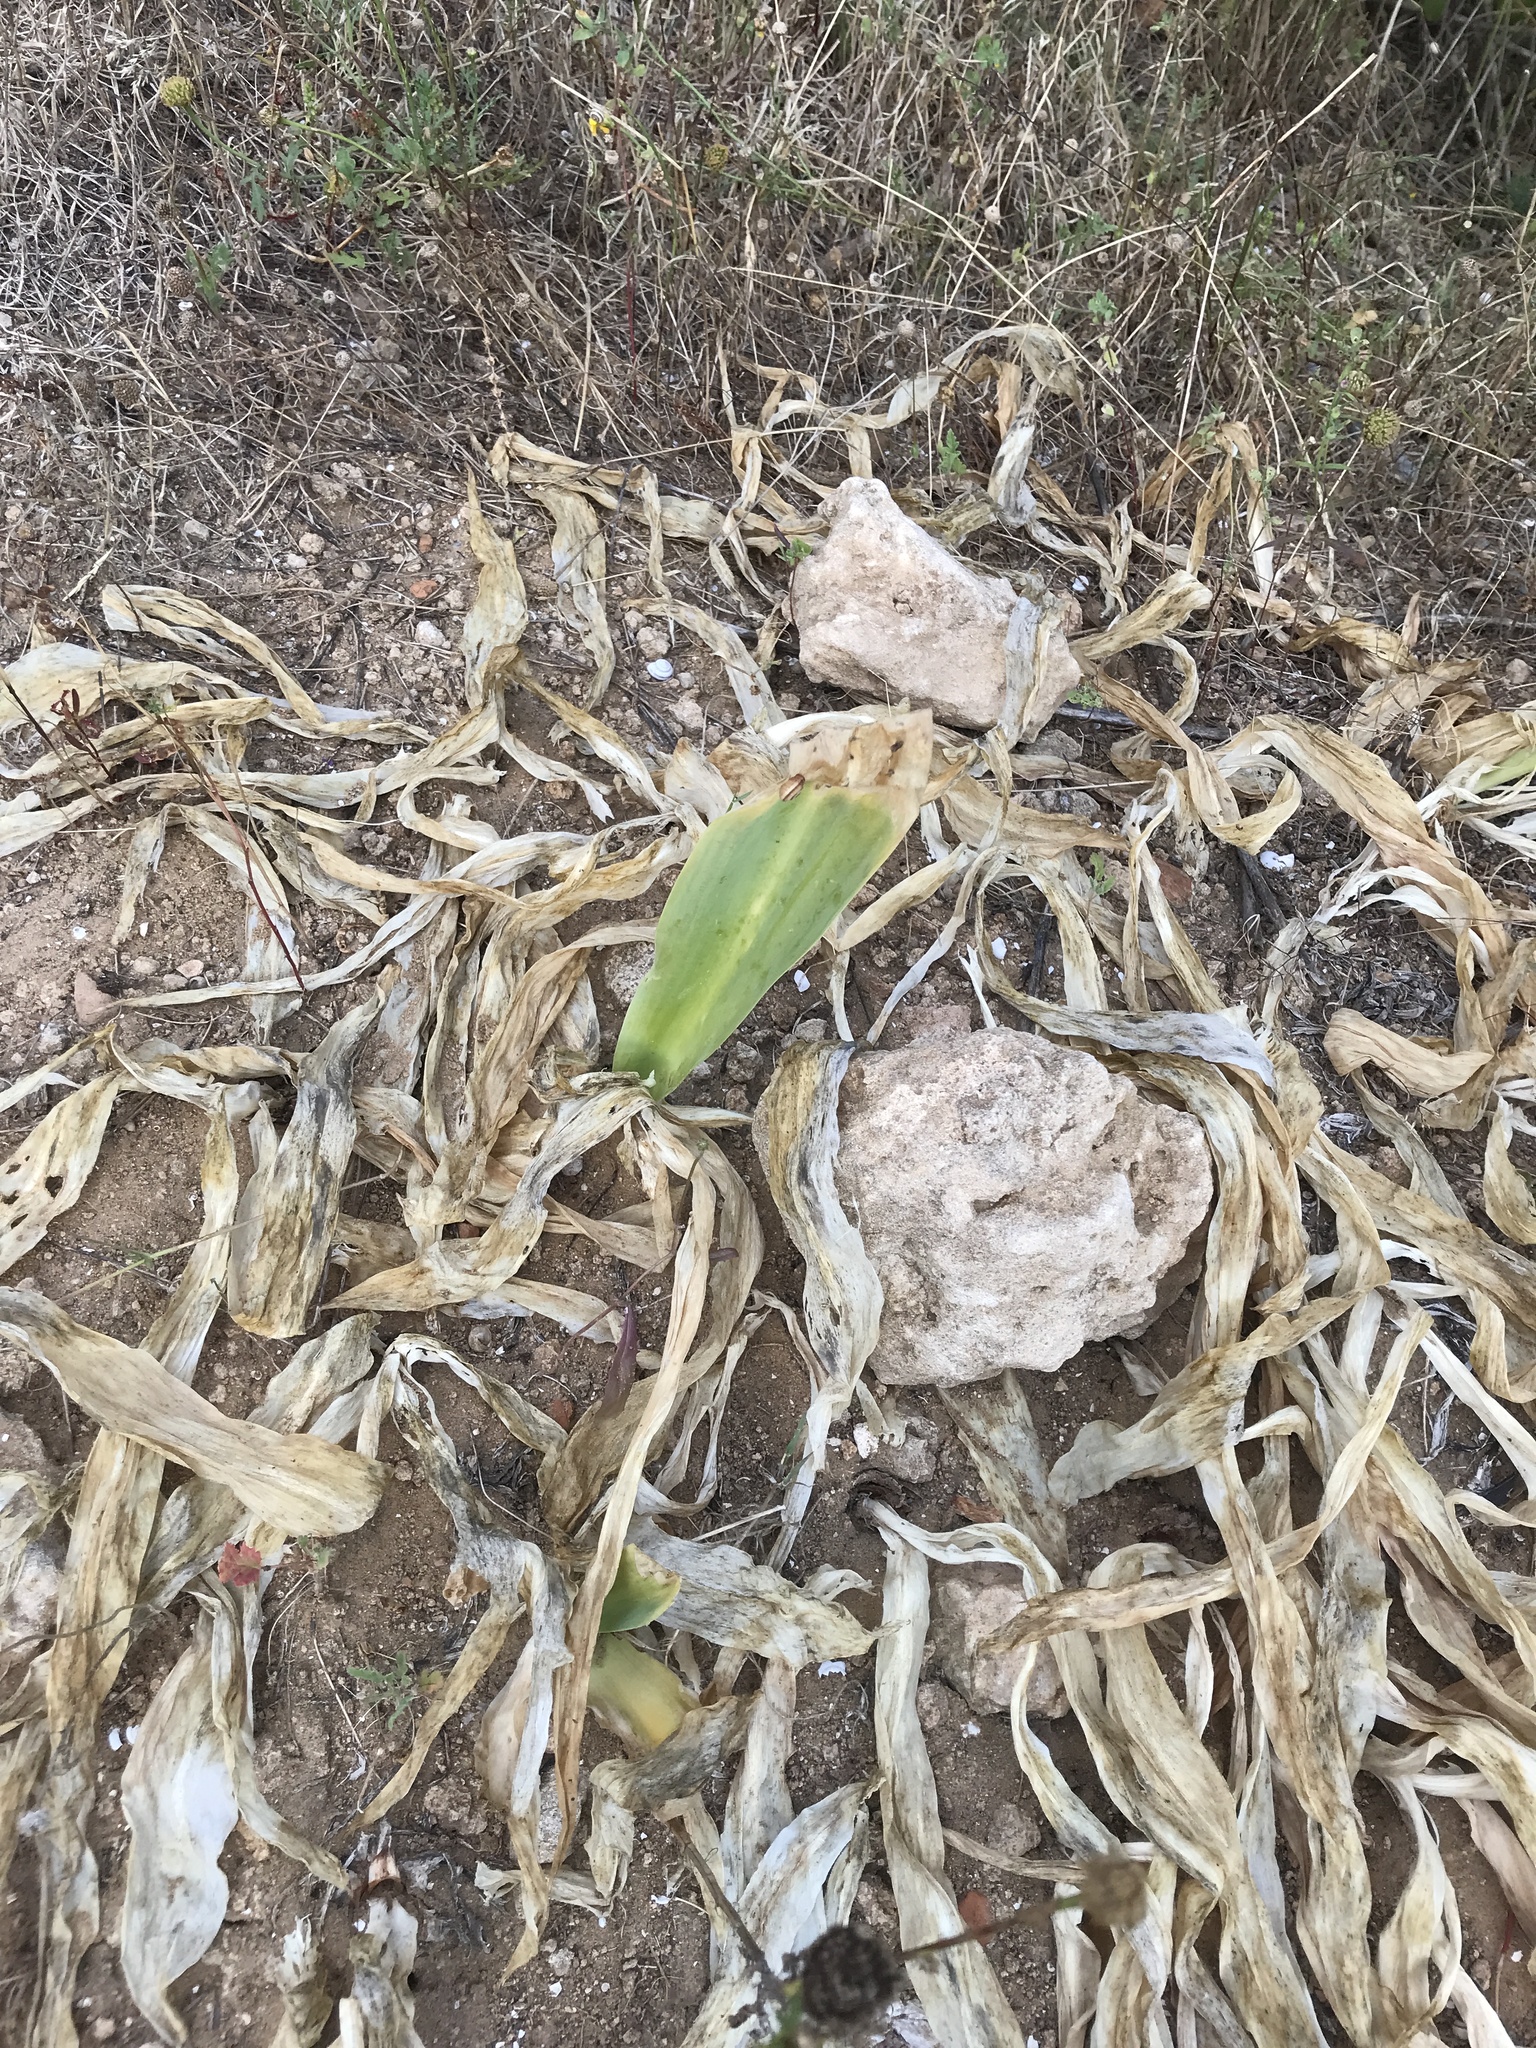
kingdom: Plantae
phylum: Tracheophyta
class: Liliopsida
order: Asparagales
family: Asparagaceae
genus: Drimia
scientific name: Drimia aphylla
